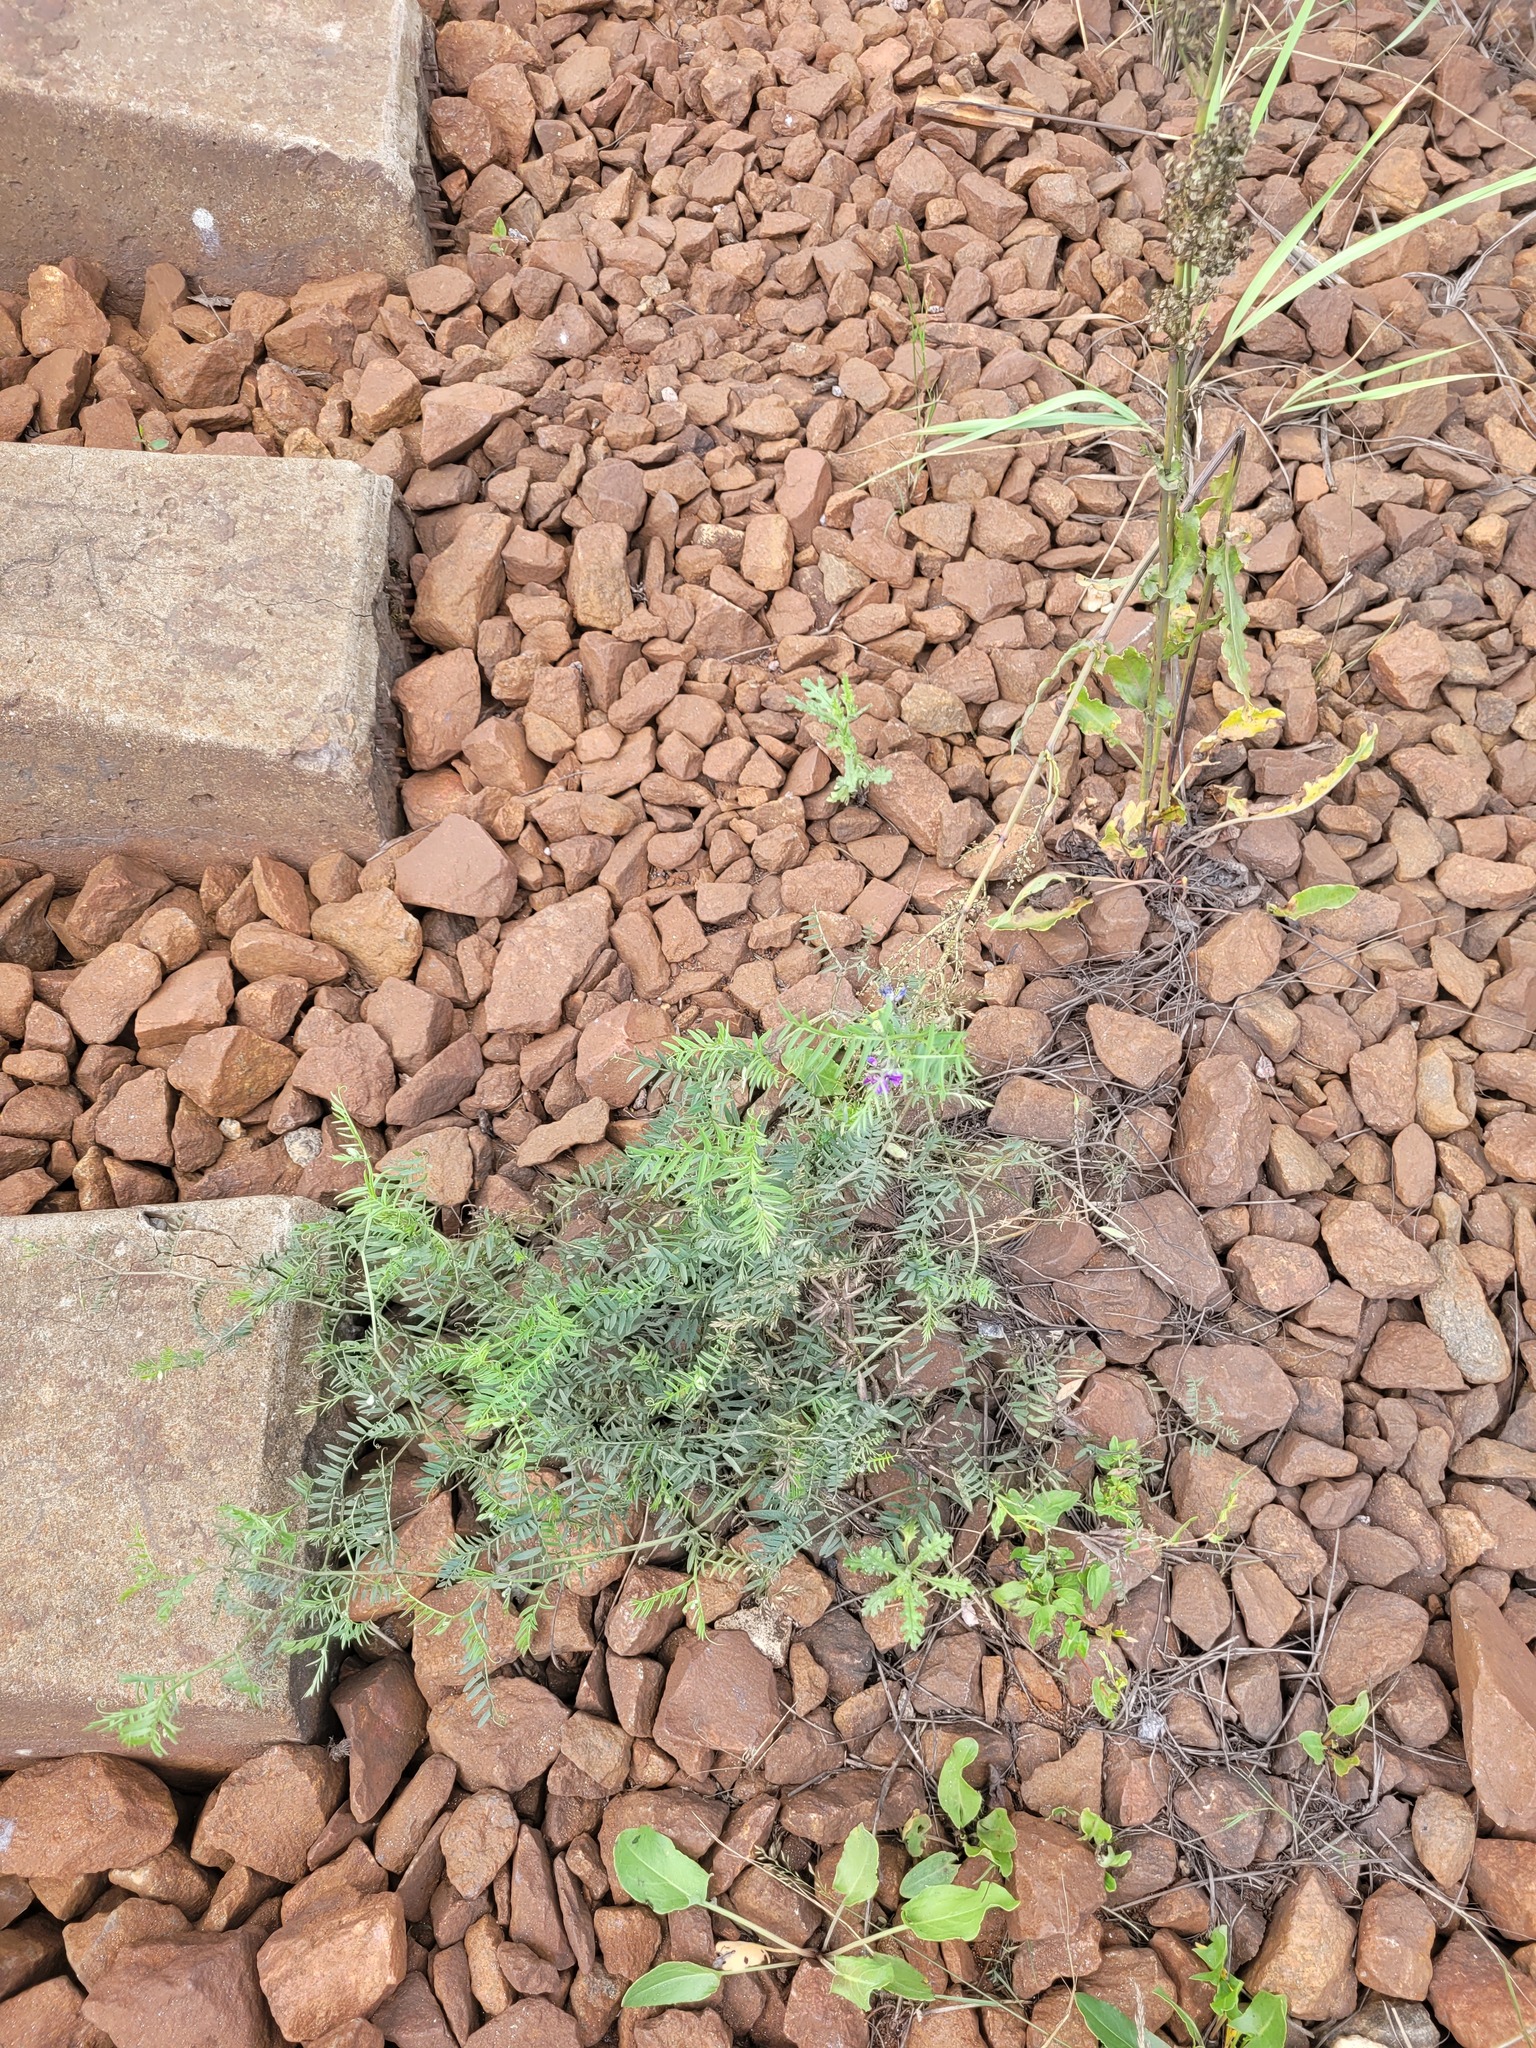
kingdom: Plantae
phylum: Tracheophyta
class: Magnoliopsida
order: Fabales
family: Fabaceae
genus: Vicia
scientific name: Vicia cracca
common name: Bird vetch
